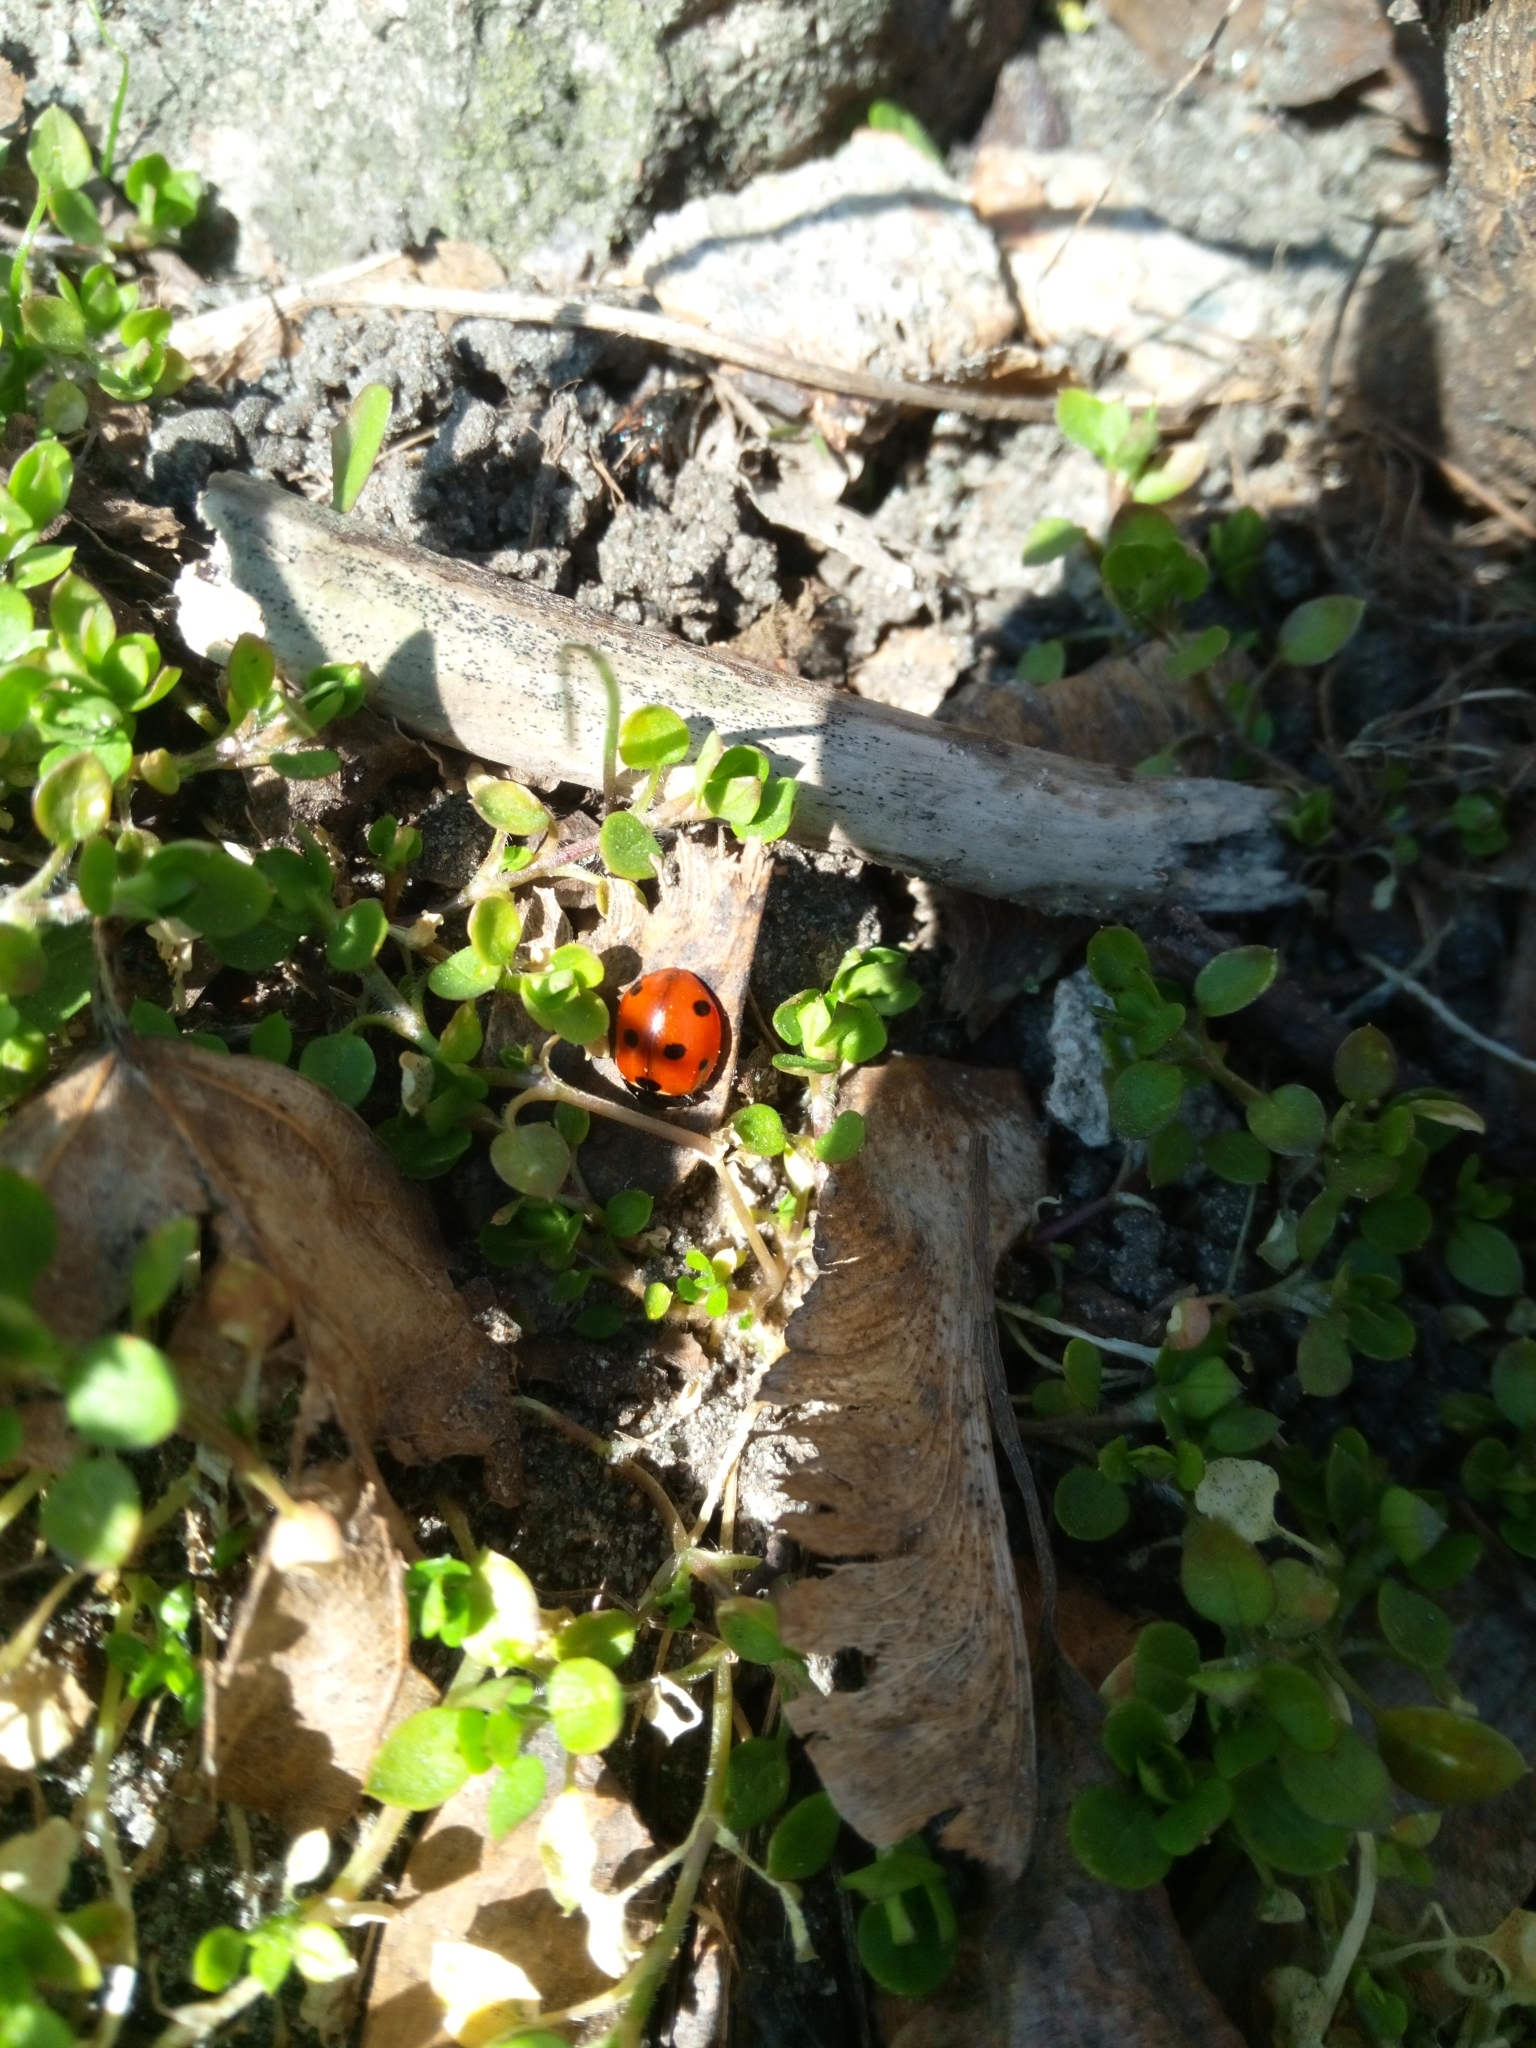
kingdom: Animalia
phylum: Arthropoda
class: Insecta
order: Coleoptera
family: Coccinellidae
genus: Coccinella
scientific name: Coccinella septempunctata
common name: Sevenspotted lady beetle
